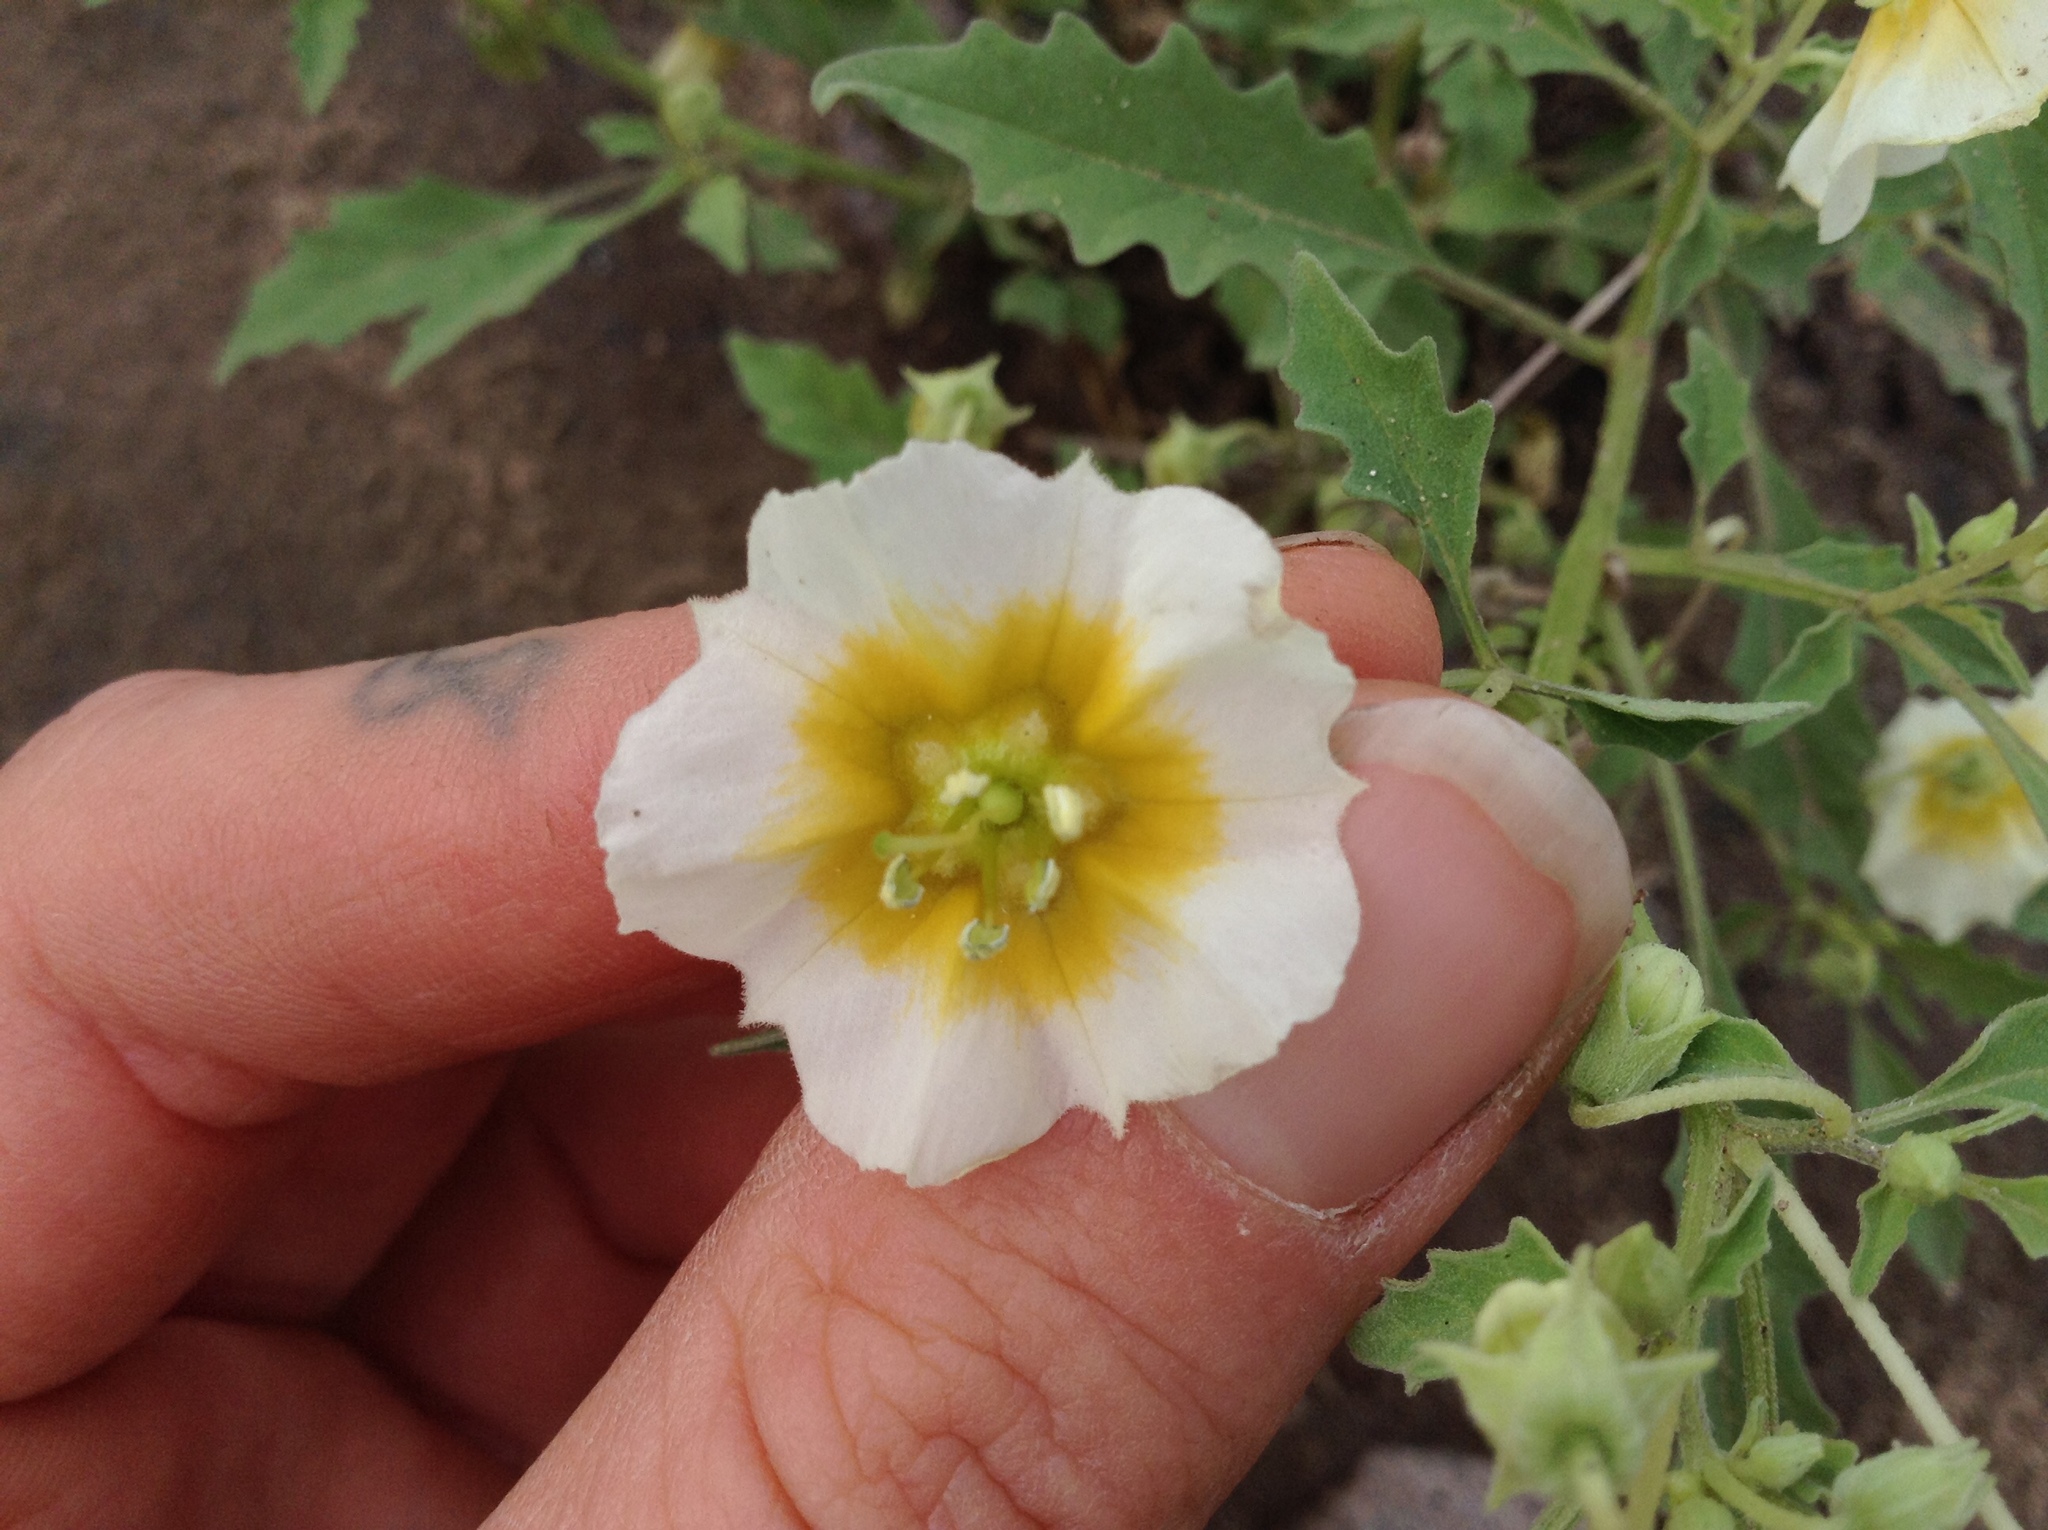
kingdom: Plantae
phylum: Tracheophyta
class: Magnoliopsida
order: Solanales
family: Solanaceae
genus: Physalis
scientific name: Physalis acutifolia
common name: Wright's ground-cherry
